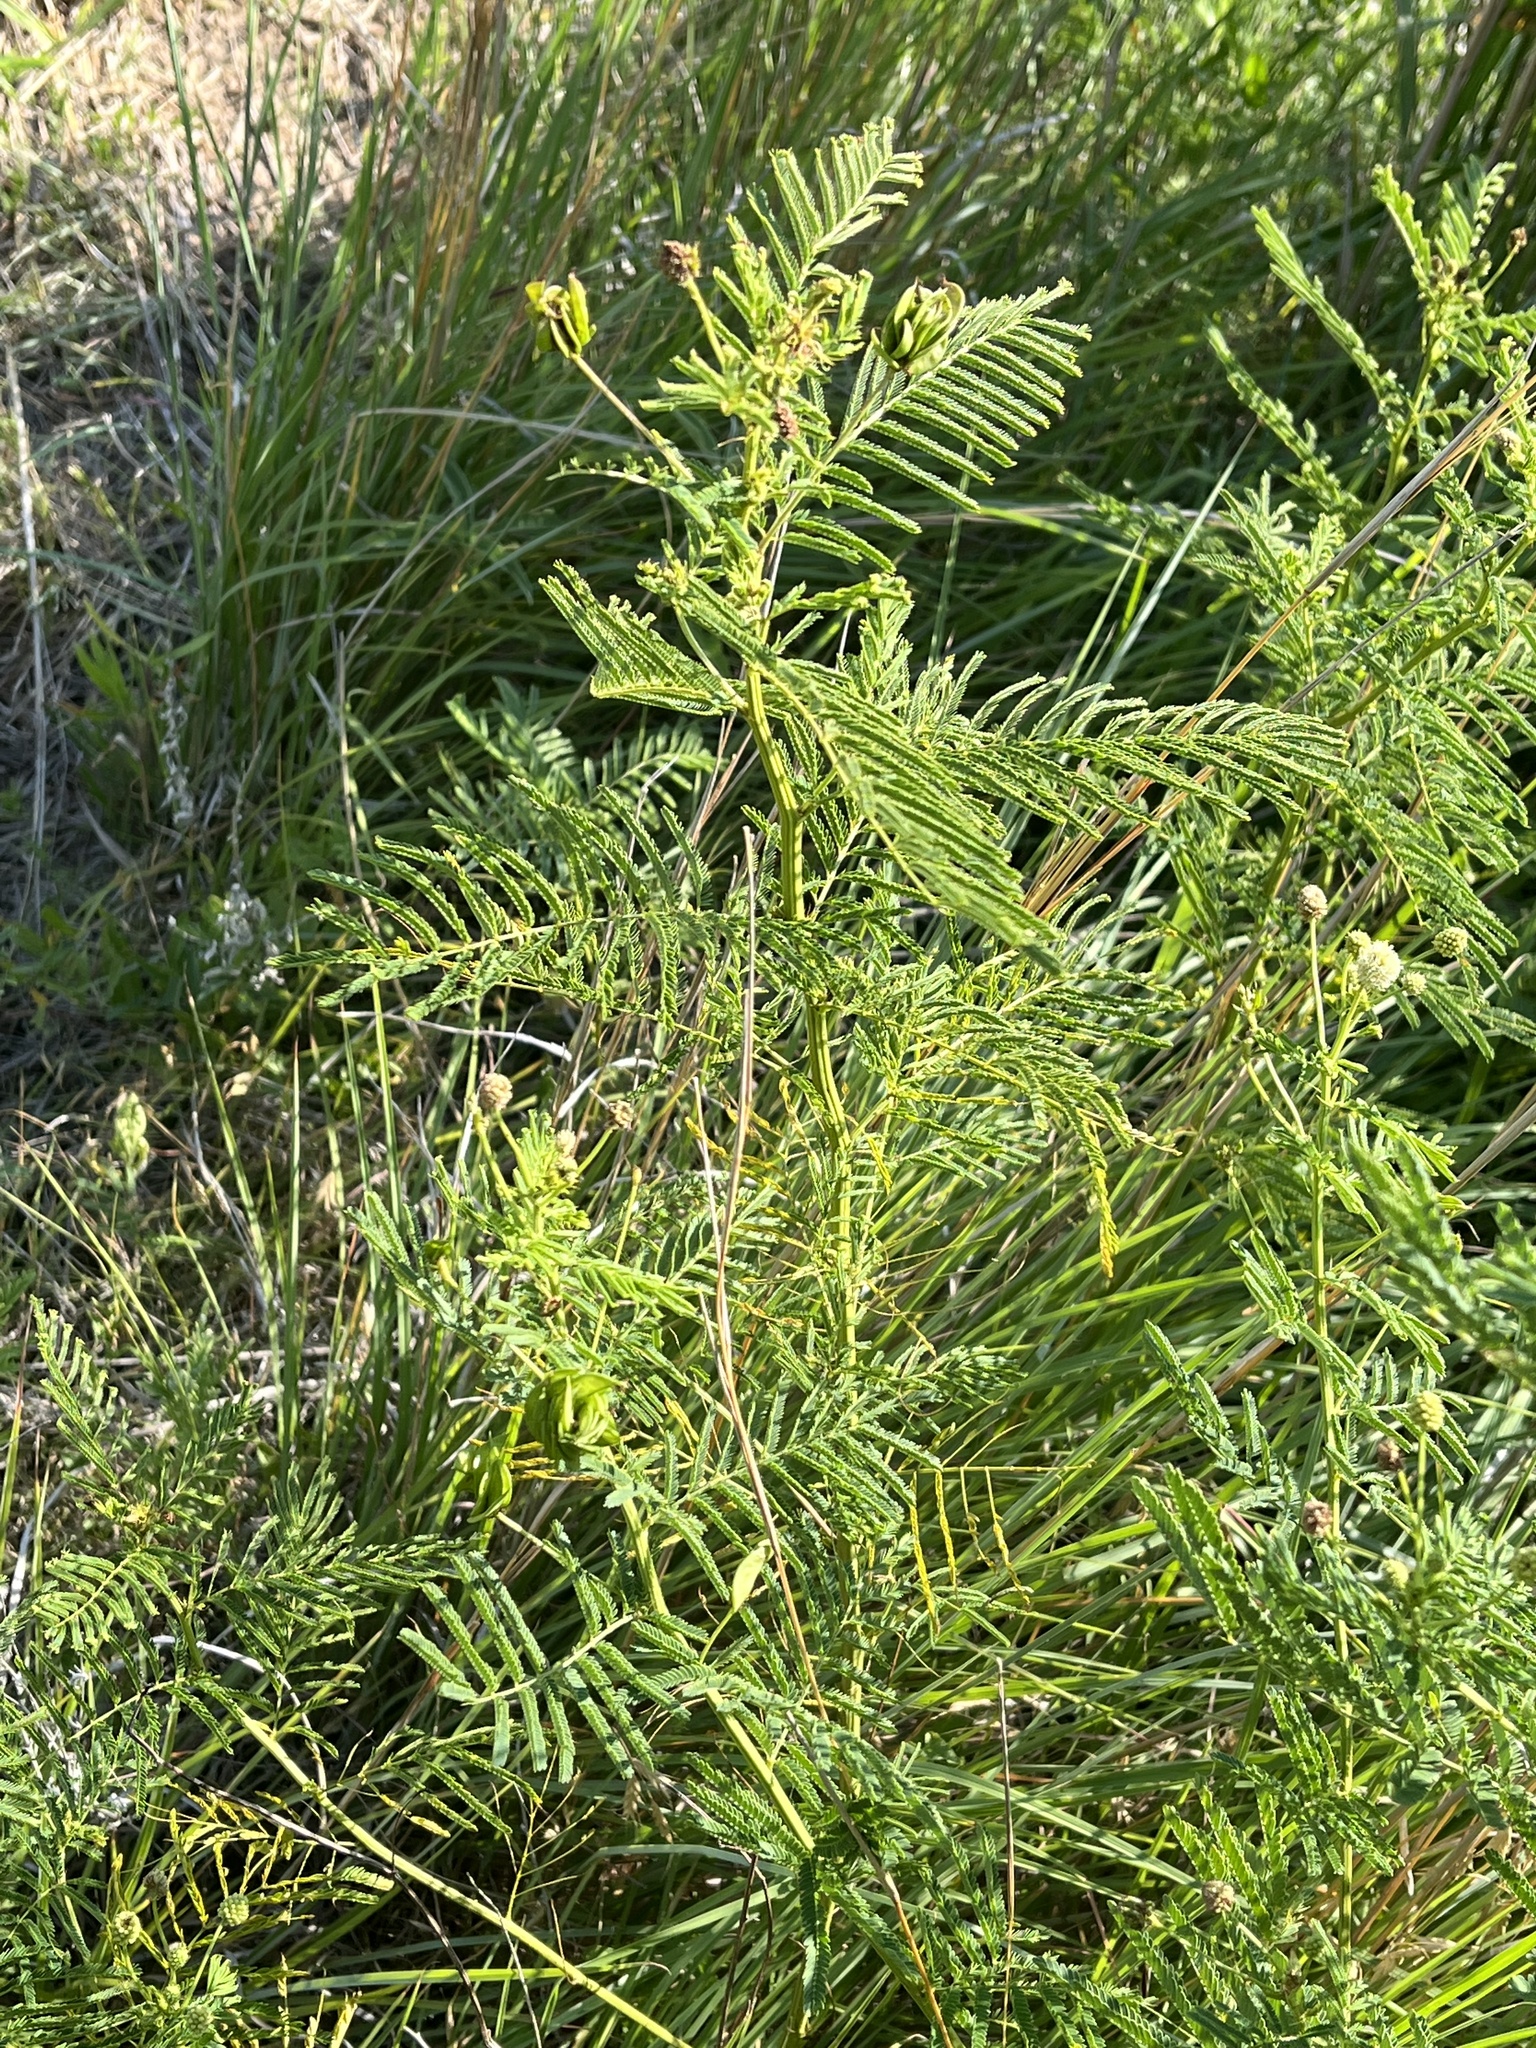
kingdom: Plantae
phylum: Tracheophyta
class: Magnoliopsida
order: Fabales
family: Fabaceae
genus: Desmanthus
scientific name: Desmanthus illinoensis
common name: Illinois bundle-flower
